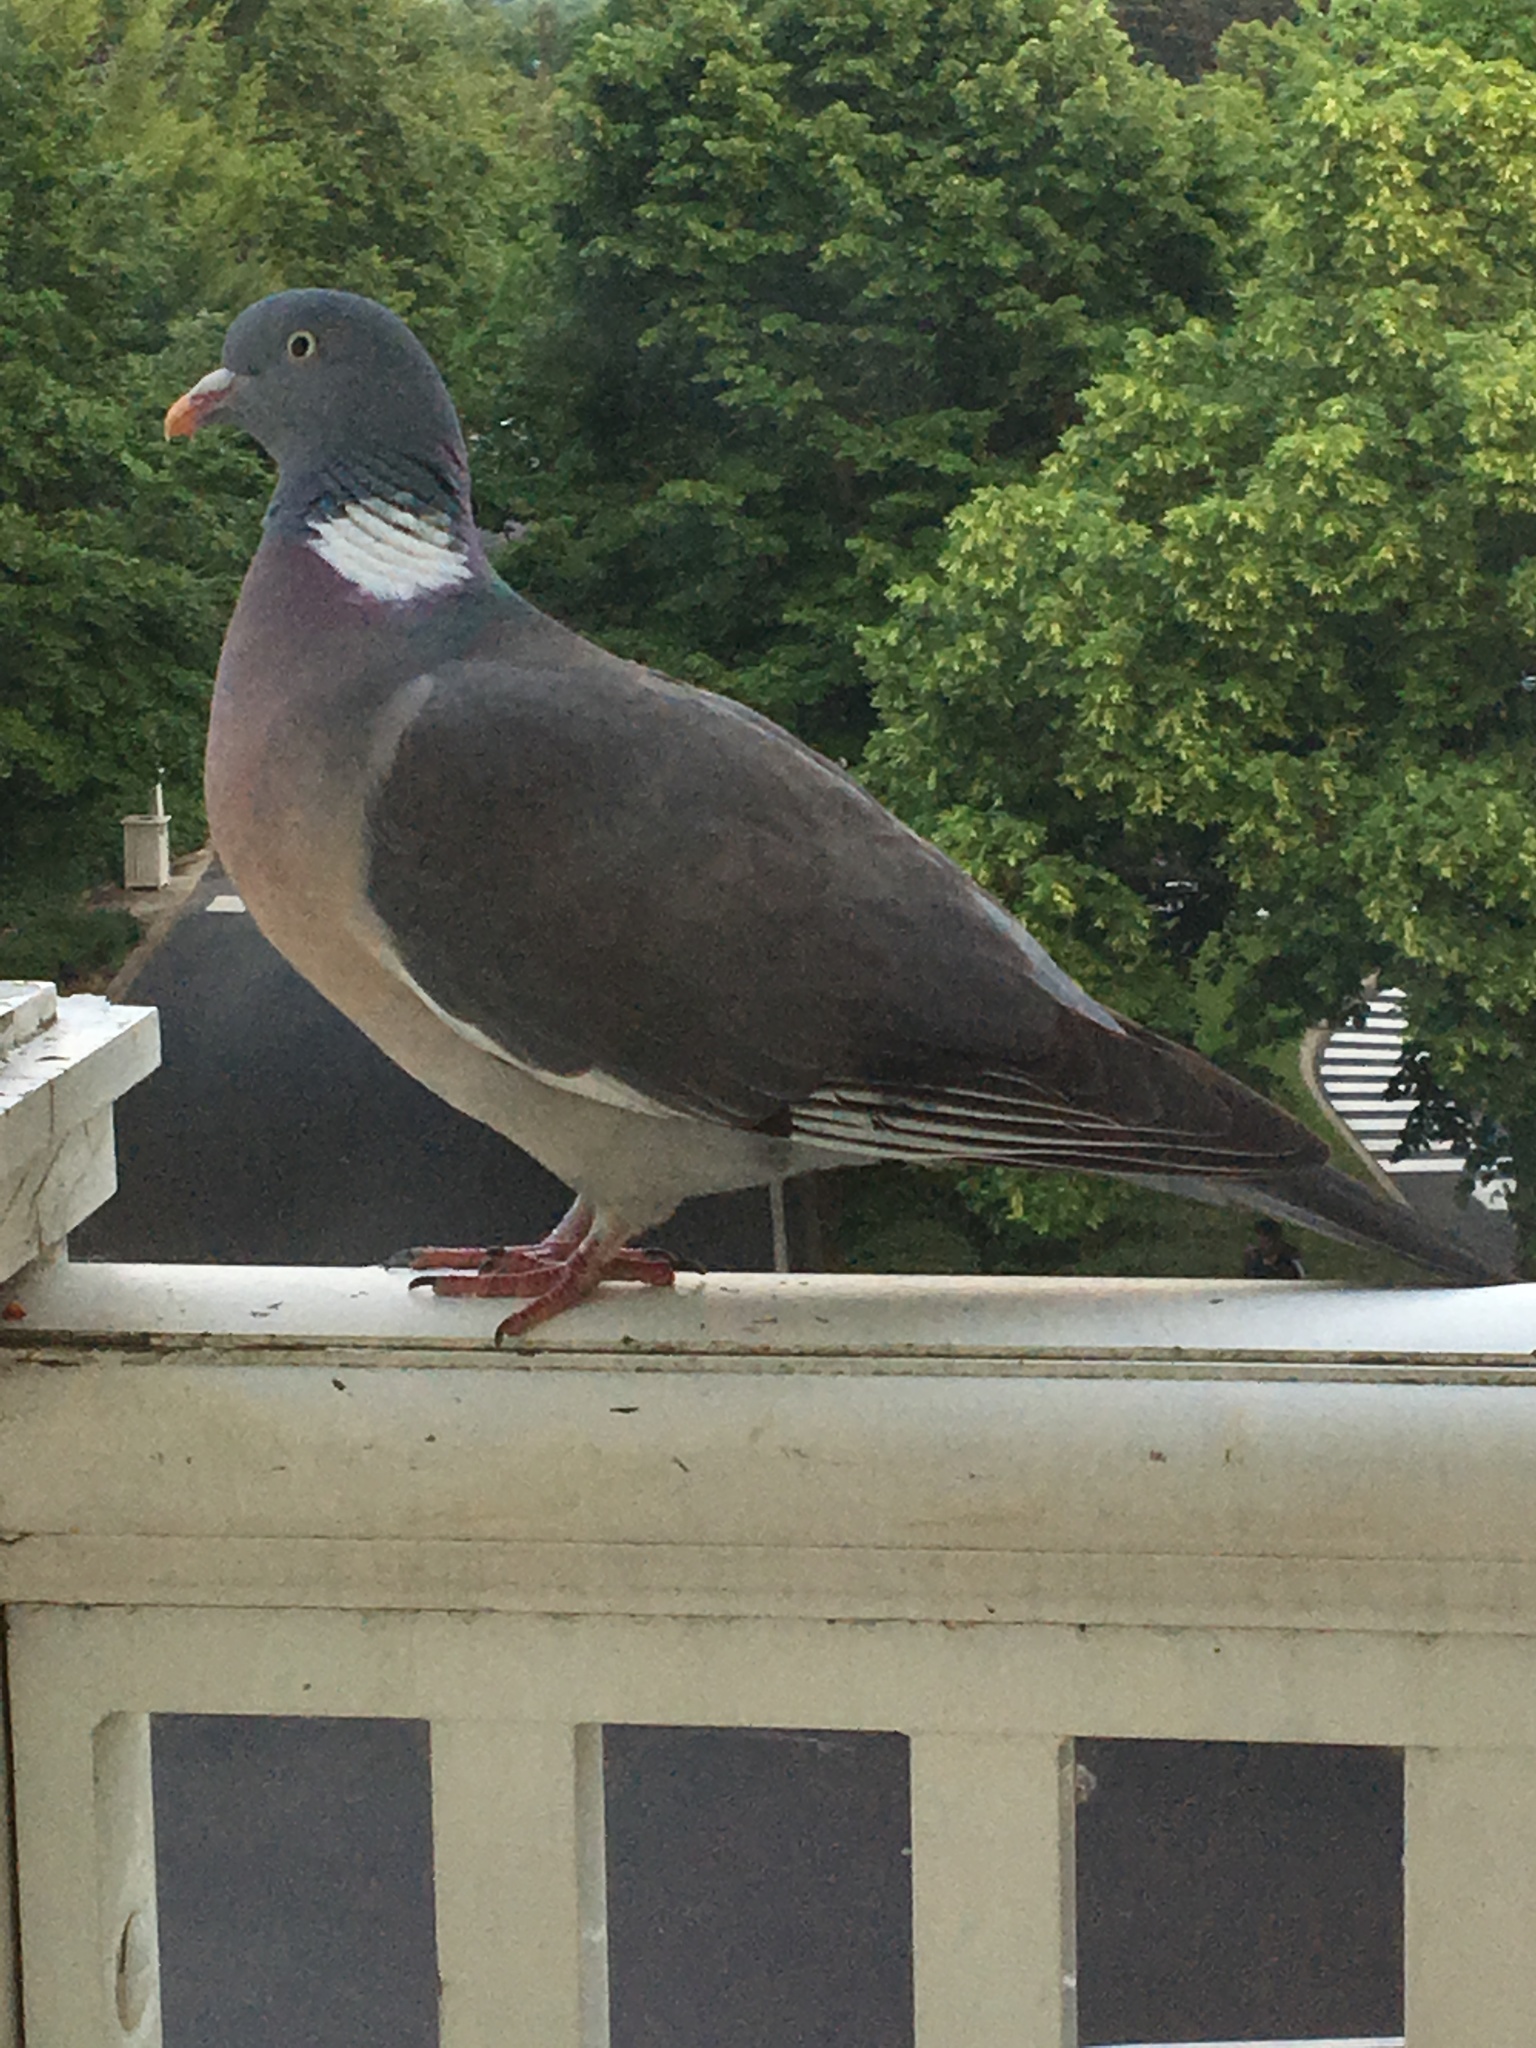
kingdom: Animalia
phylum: Chordata
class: Aves
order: Columbiformes
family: Columbidae
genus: Columba
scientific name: Columba palumbus
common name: Common wood pigeon
